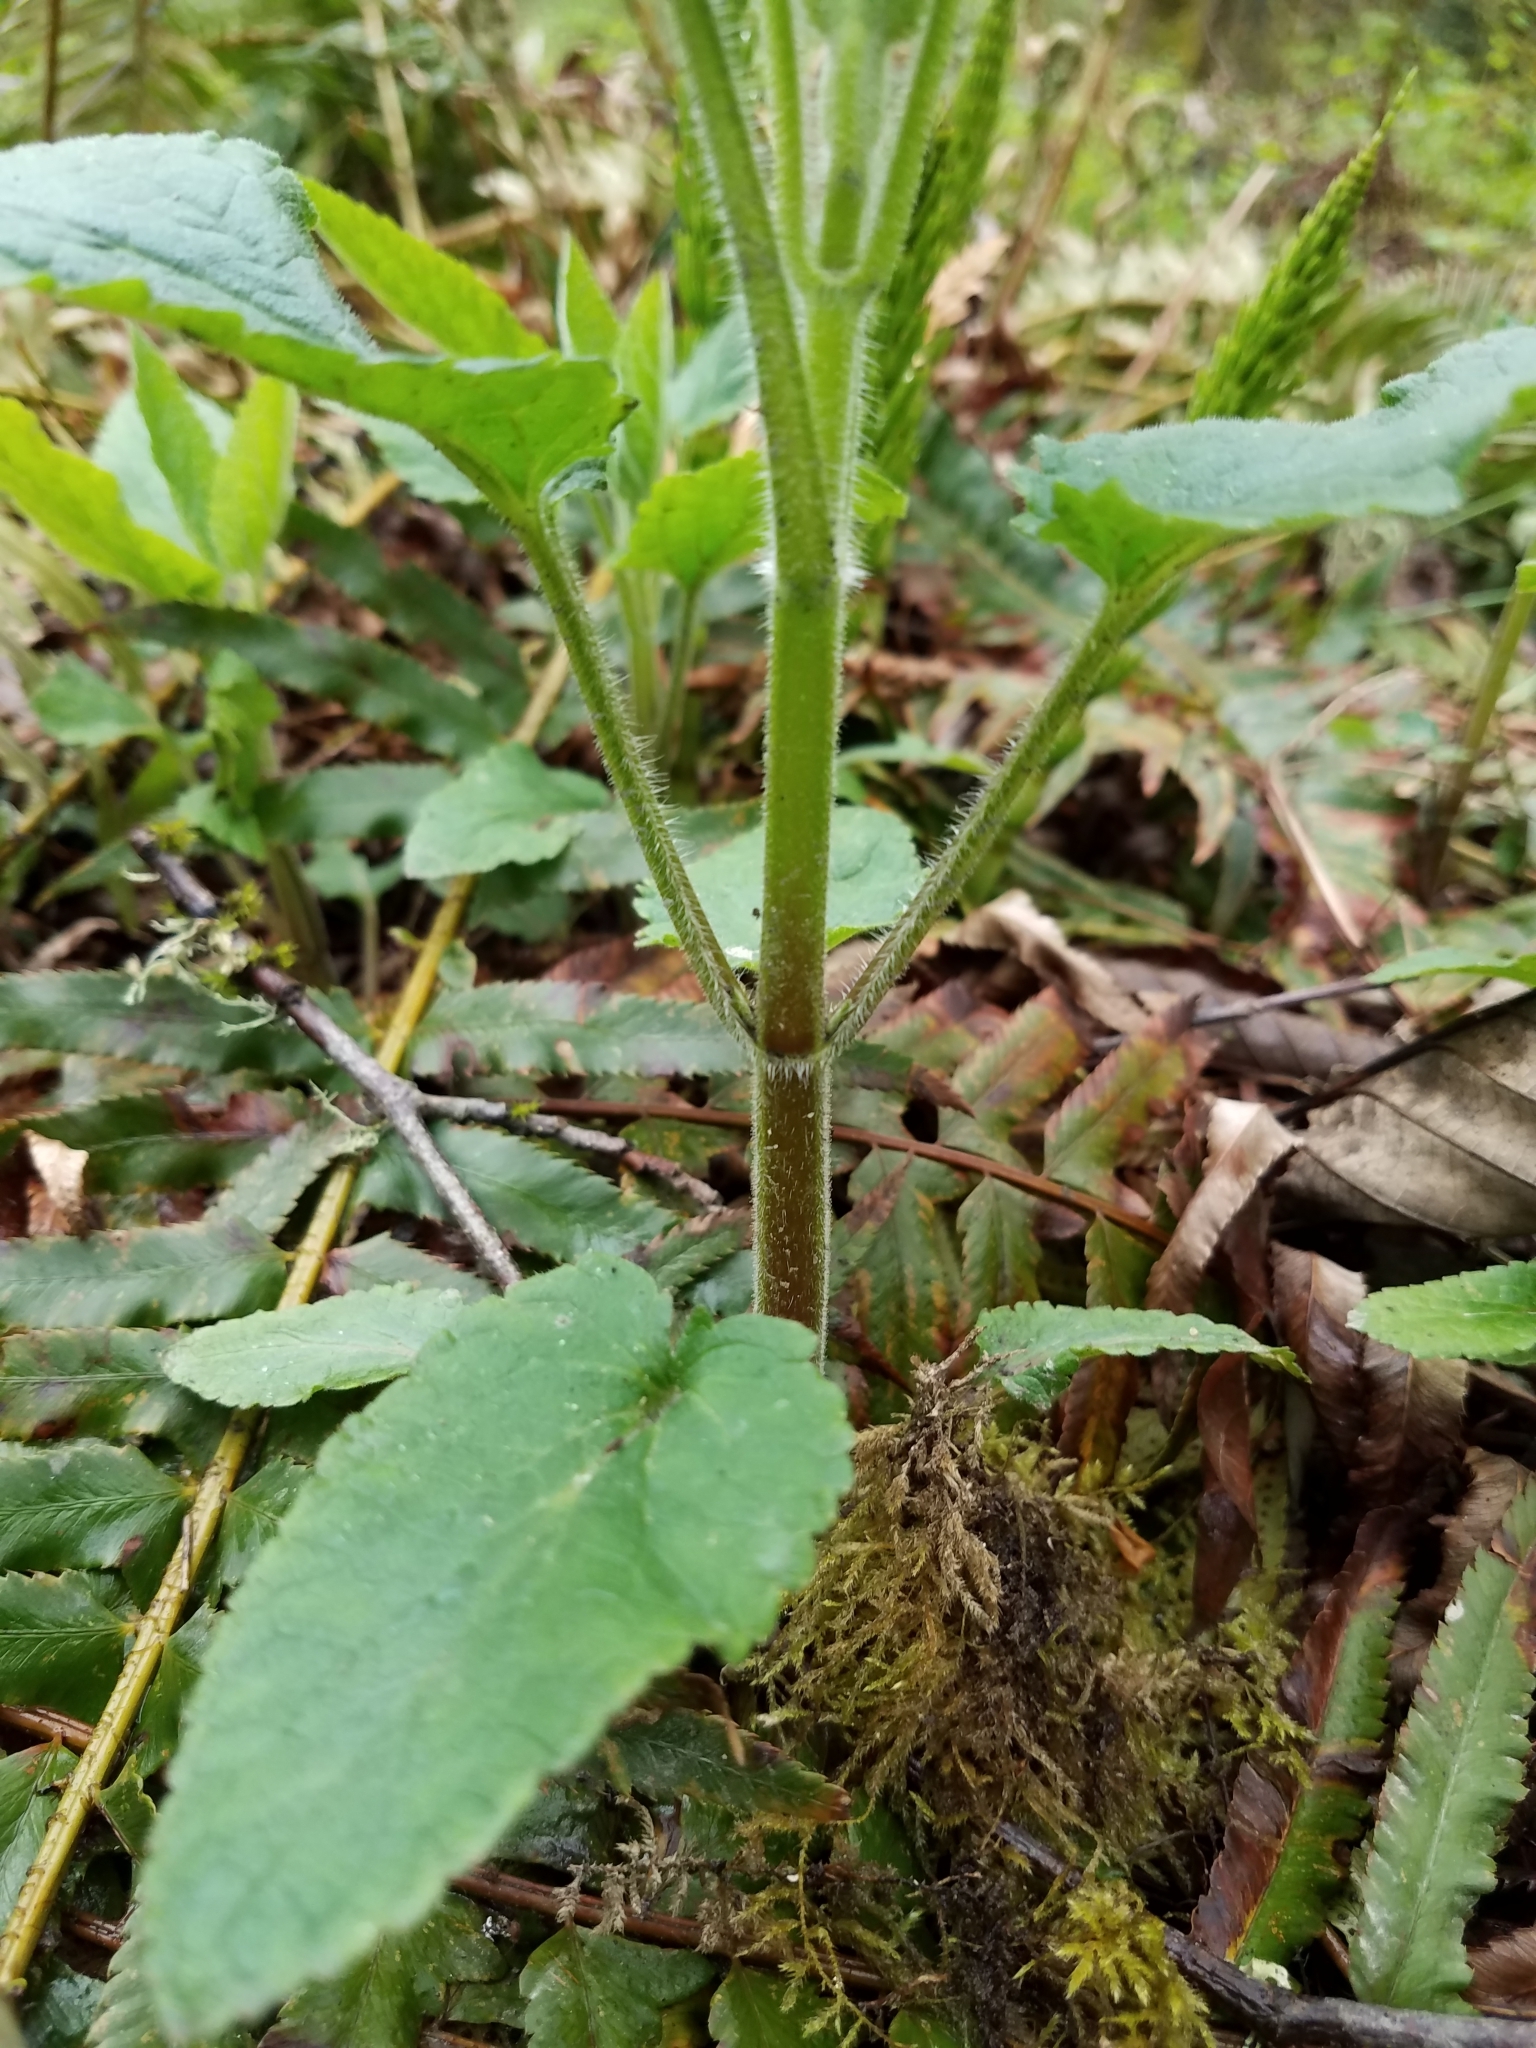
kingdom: Plantae
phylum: Tracheophyta
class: Magnoliopsida
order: Lamiales
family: Lamiaceae
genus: Stachys
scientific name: Stachys chamissonis
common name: Coastal hedge-nettle
